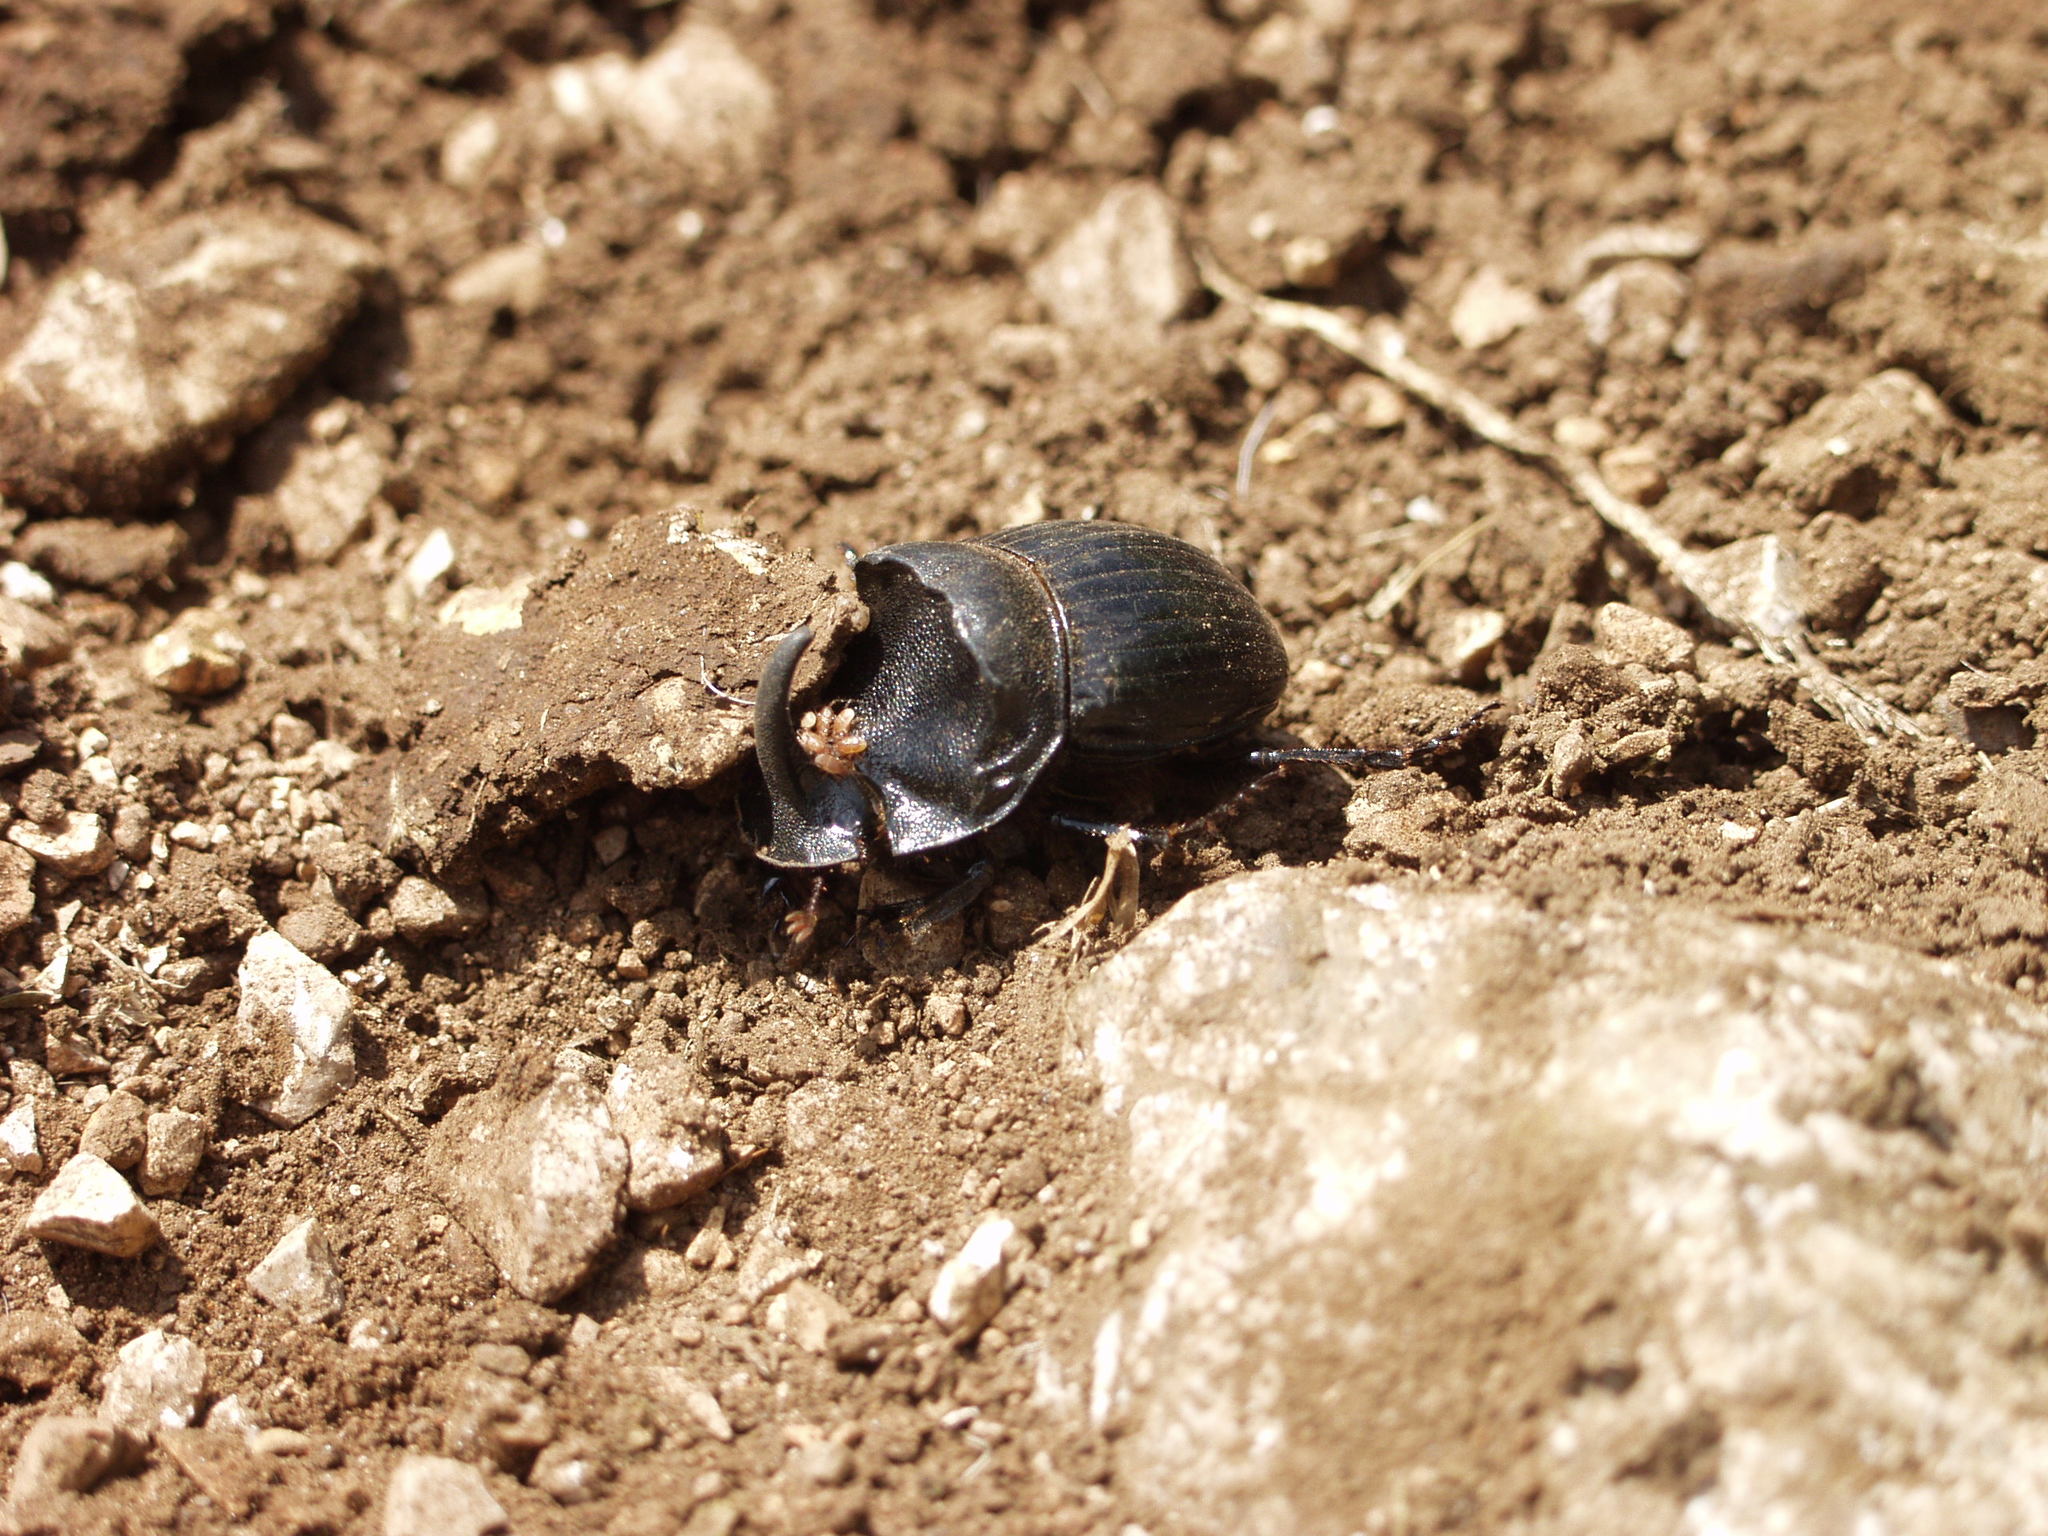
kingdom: Animalia
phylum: Arthropoda
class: Insecta
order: Coleoptera
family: Scarabaeidae
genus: Copris
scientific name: Copris hispanus
